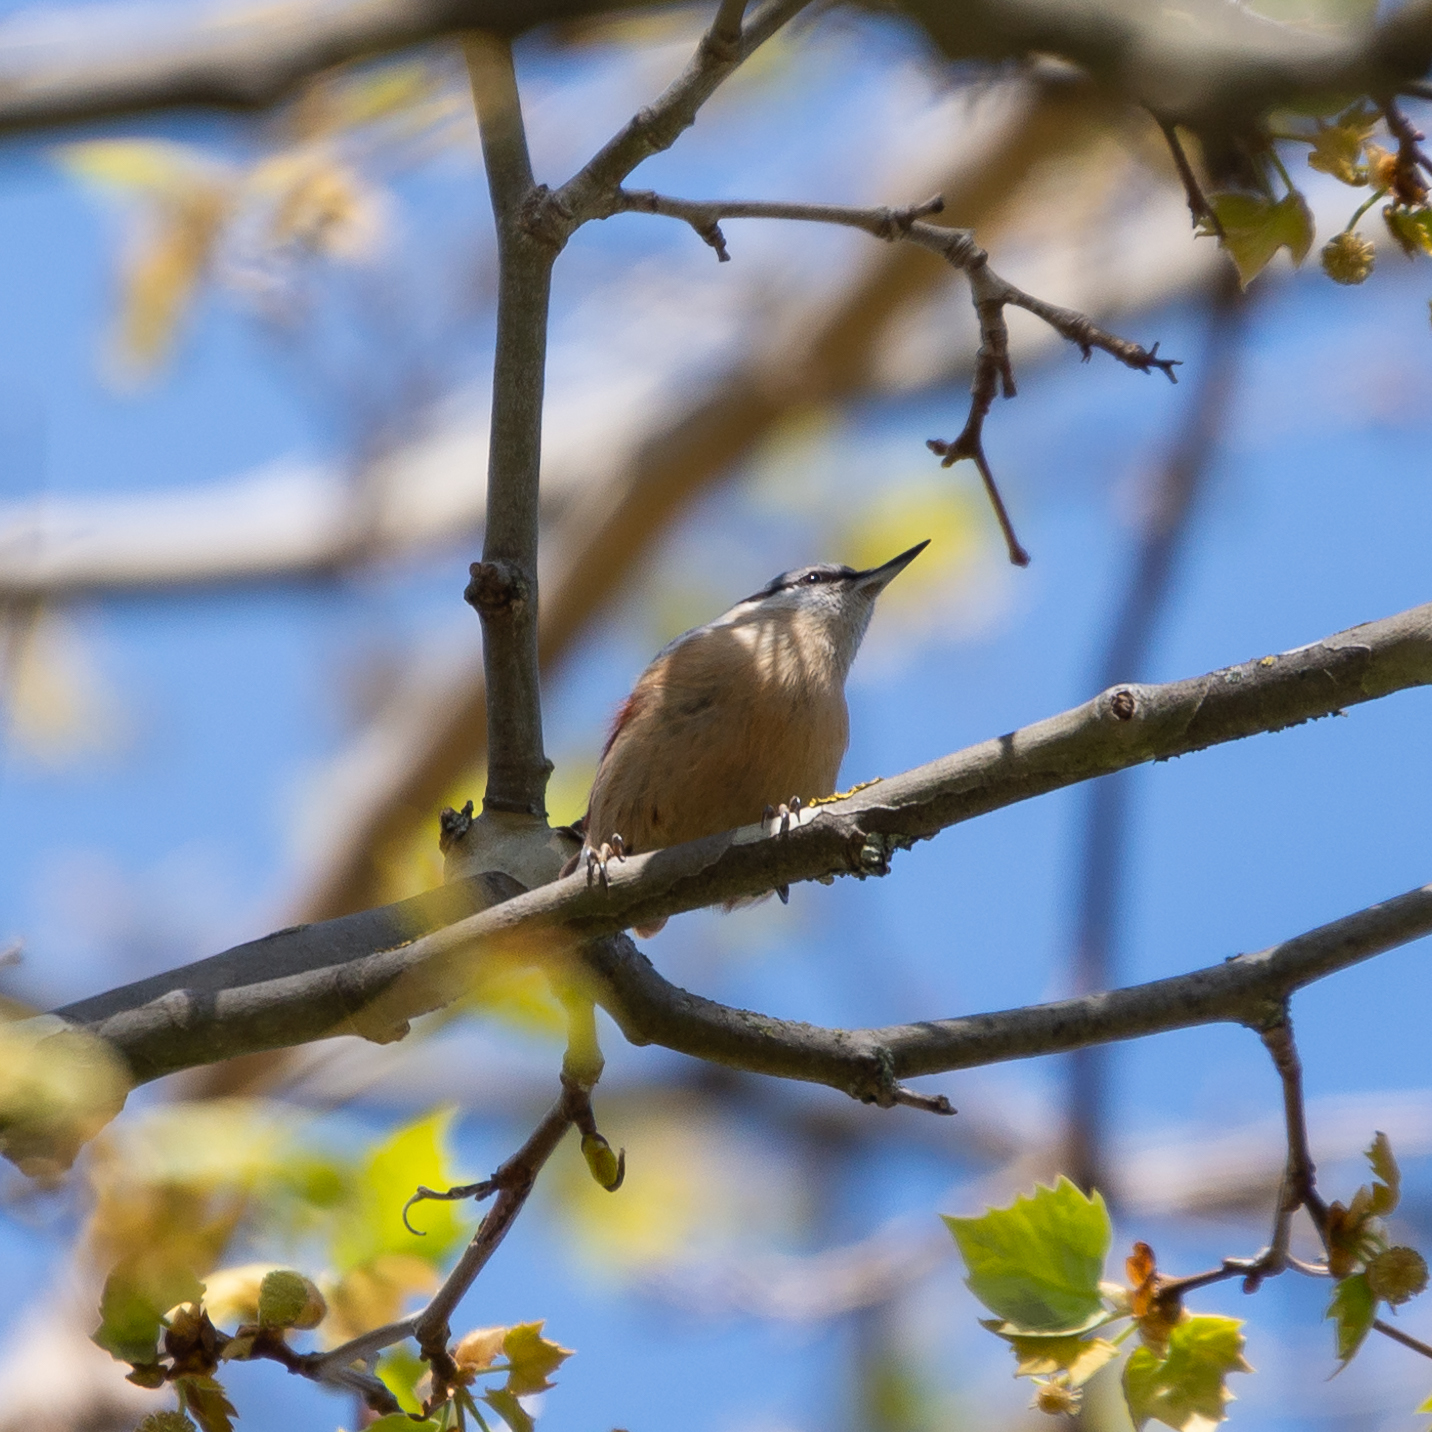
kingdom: Animalia
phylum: Chordata
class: Aves
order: Passeriformes
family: Sittidae
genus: Sitta
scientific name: Sitta europaea
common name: Eurasian nuthatch
